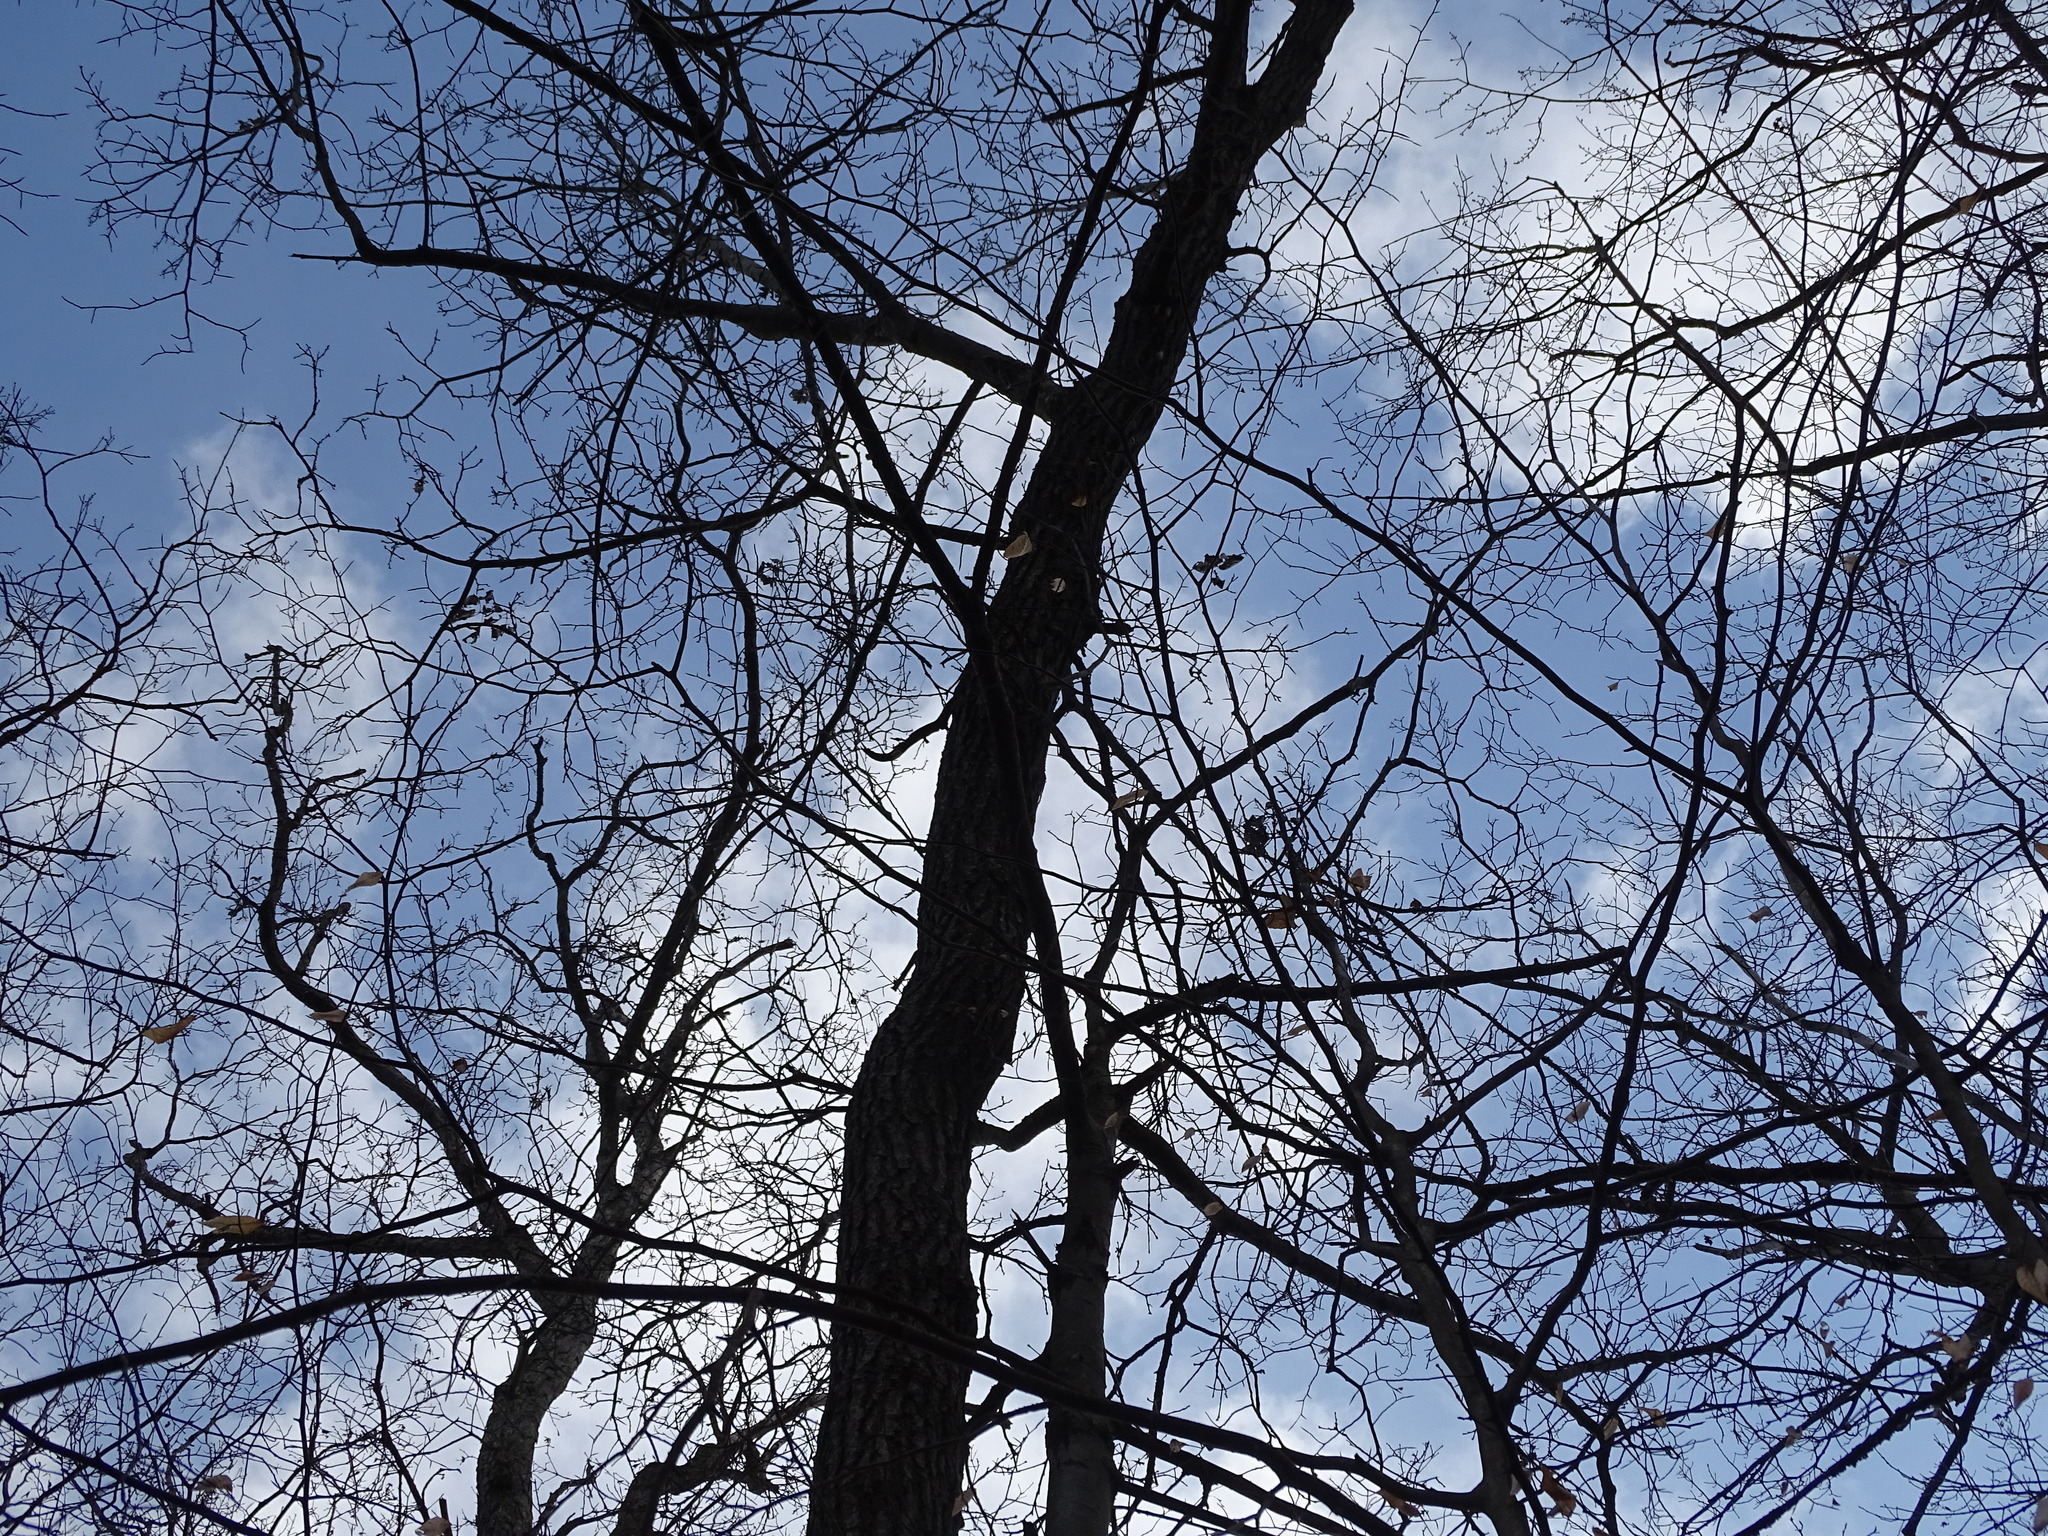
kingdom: Plantae
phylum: Tracheophyta
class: Magnoliopsida
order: Fagales
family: Fagaceae
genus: Quercus
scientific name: Quercus velutina
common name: Black oak
